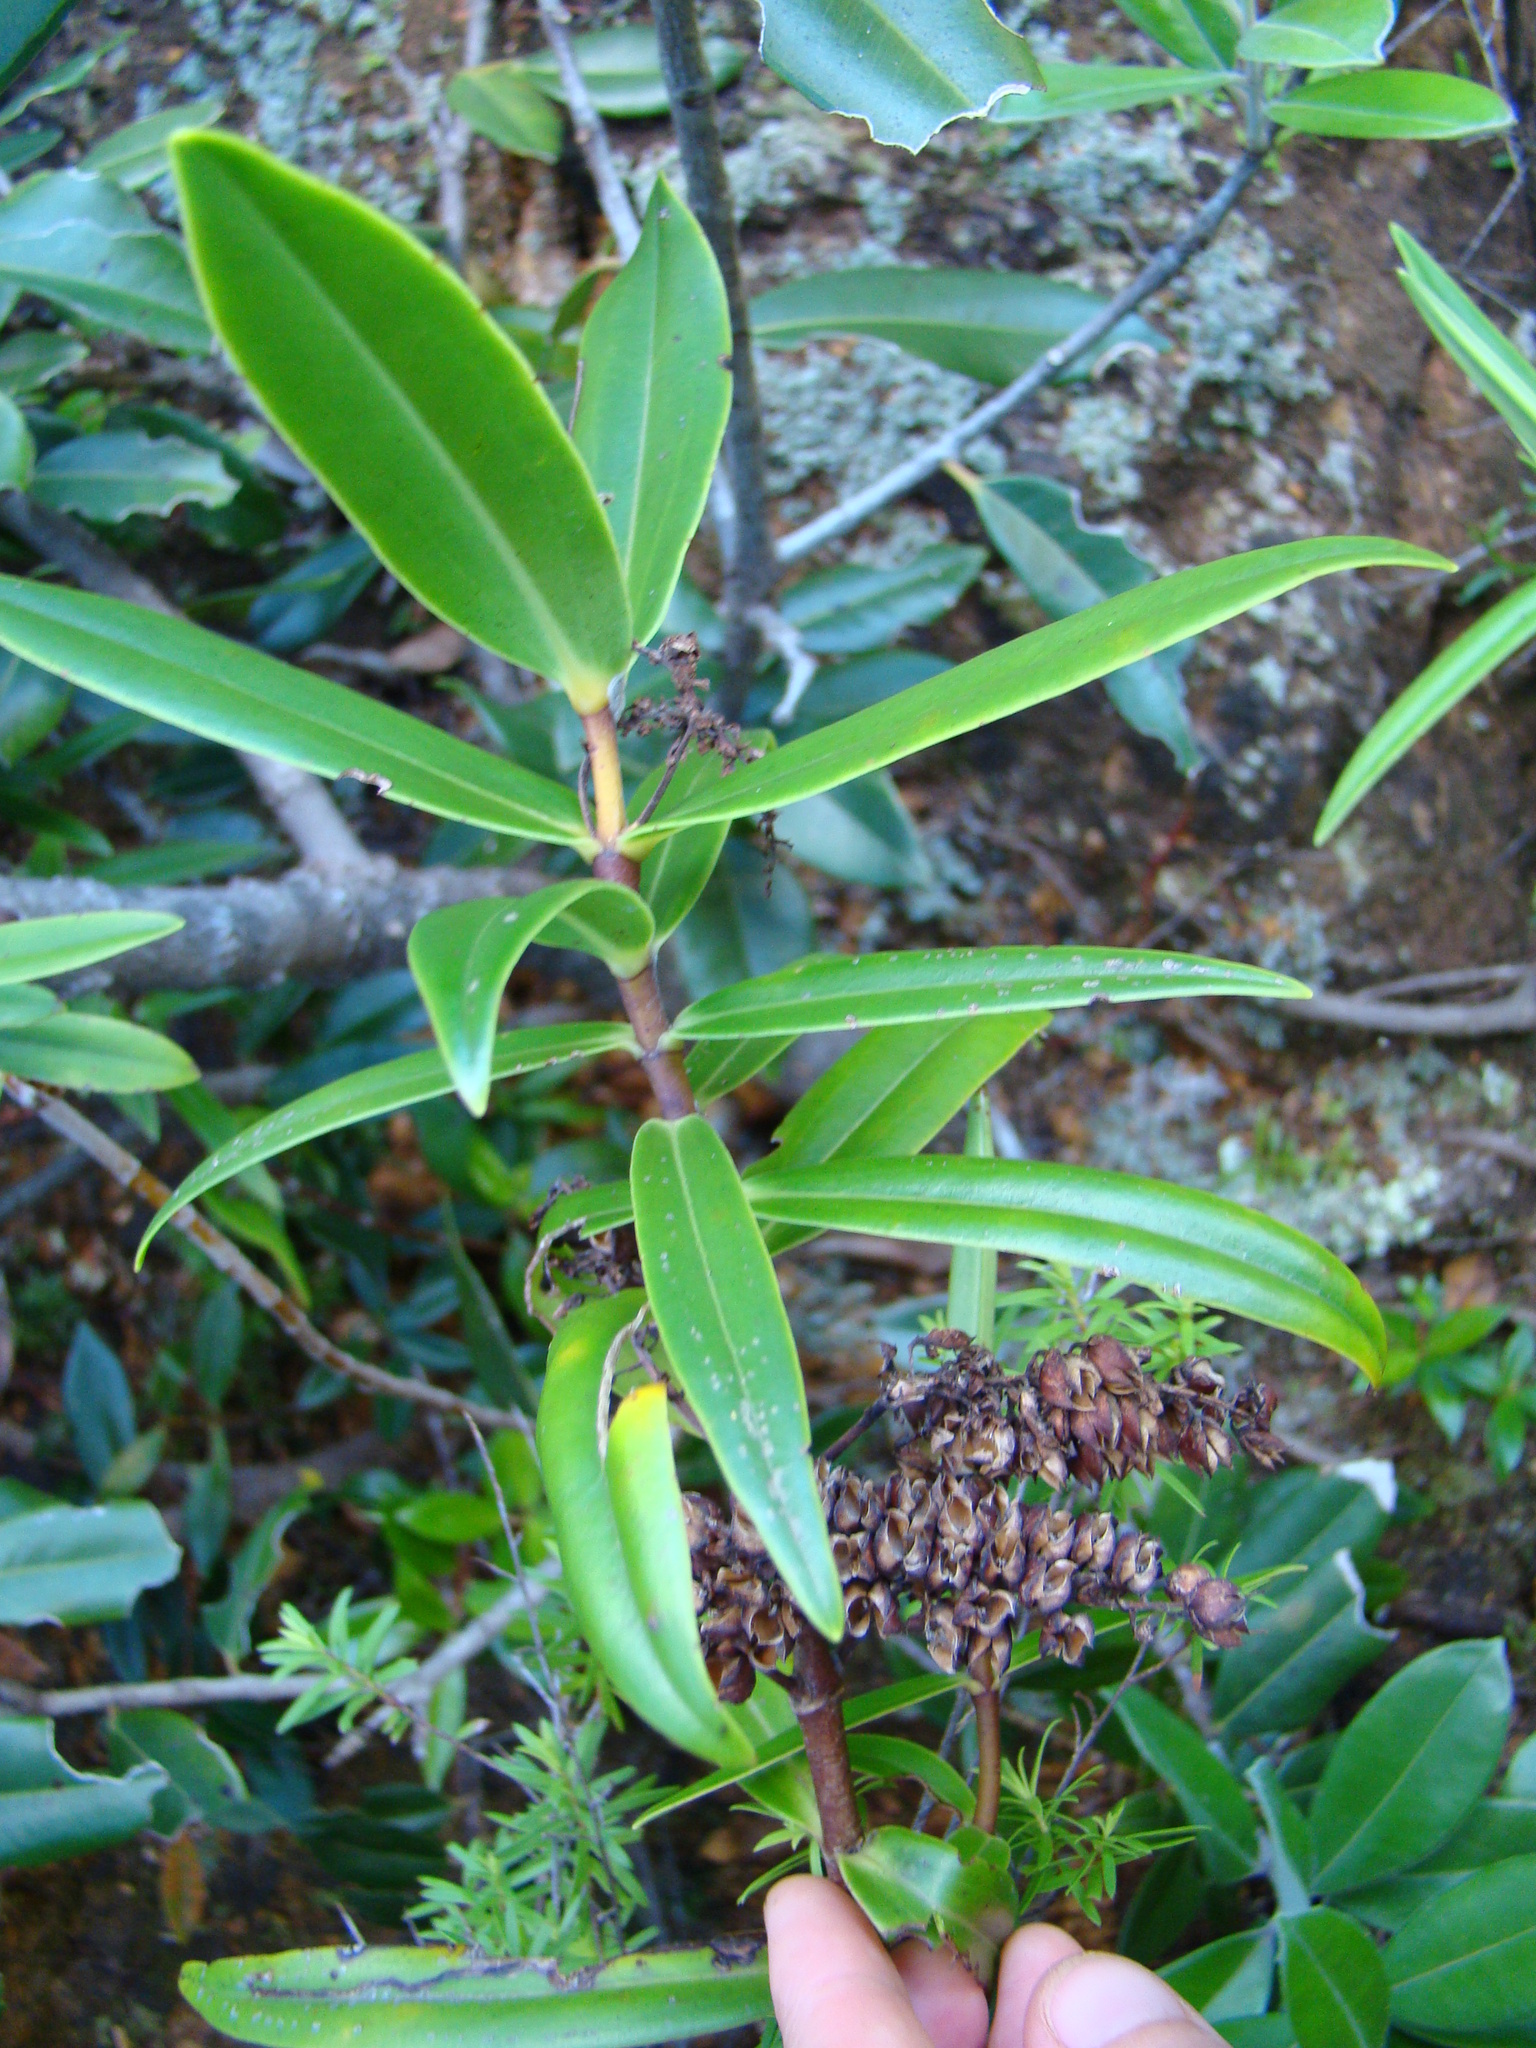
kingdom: Plantae
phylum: Tracheophyta
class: Magnoliopsida
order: Lamiales
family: Plantaginaceae
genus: Veronica
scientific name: Veronica macrocarpa
